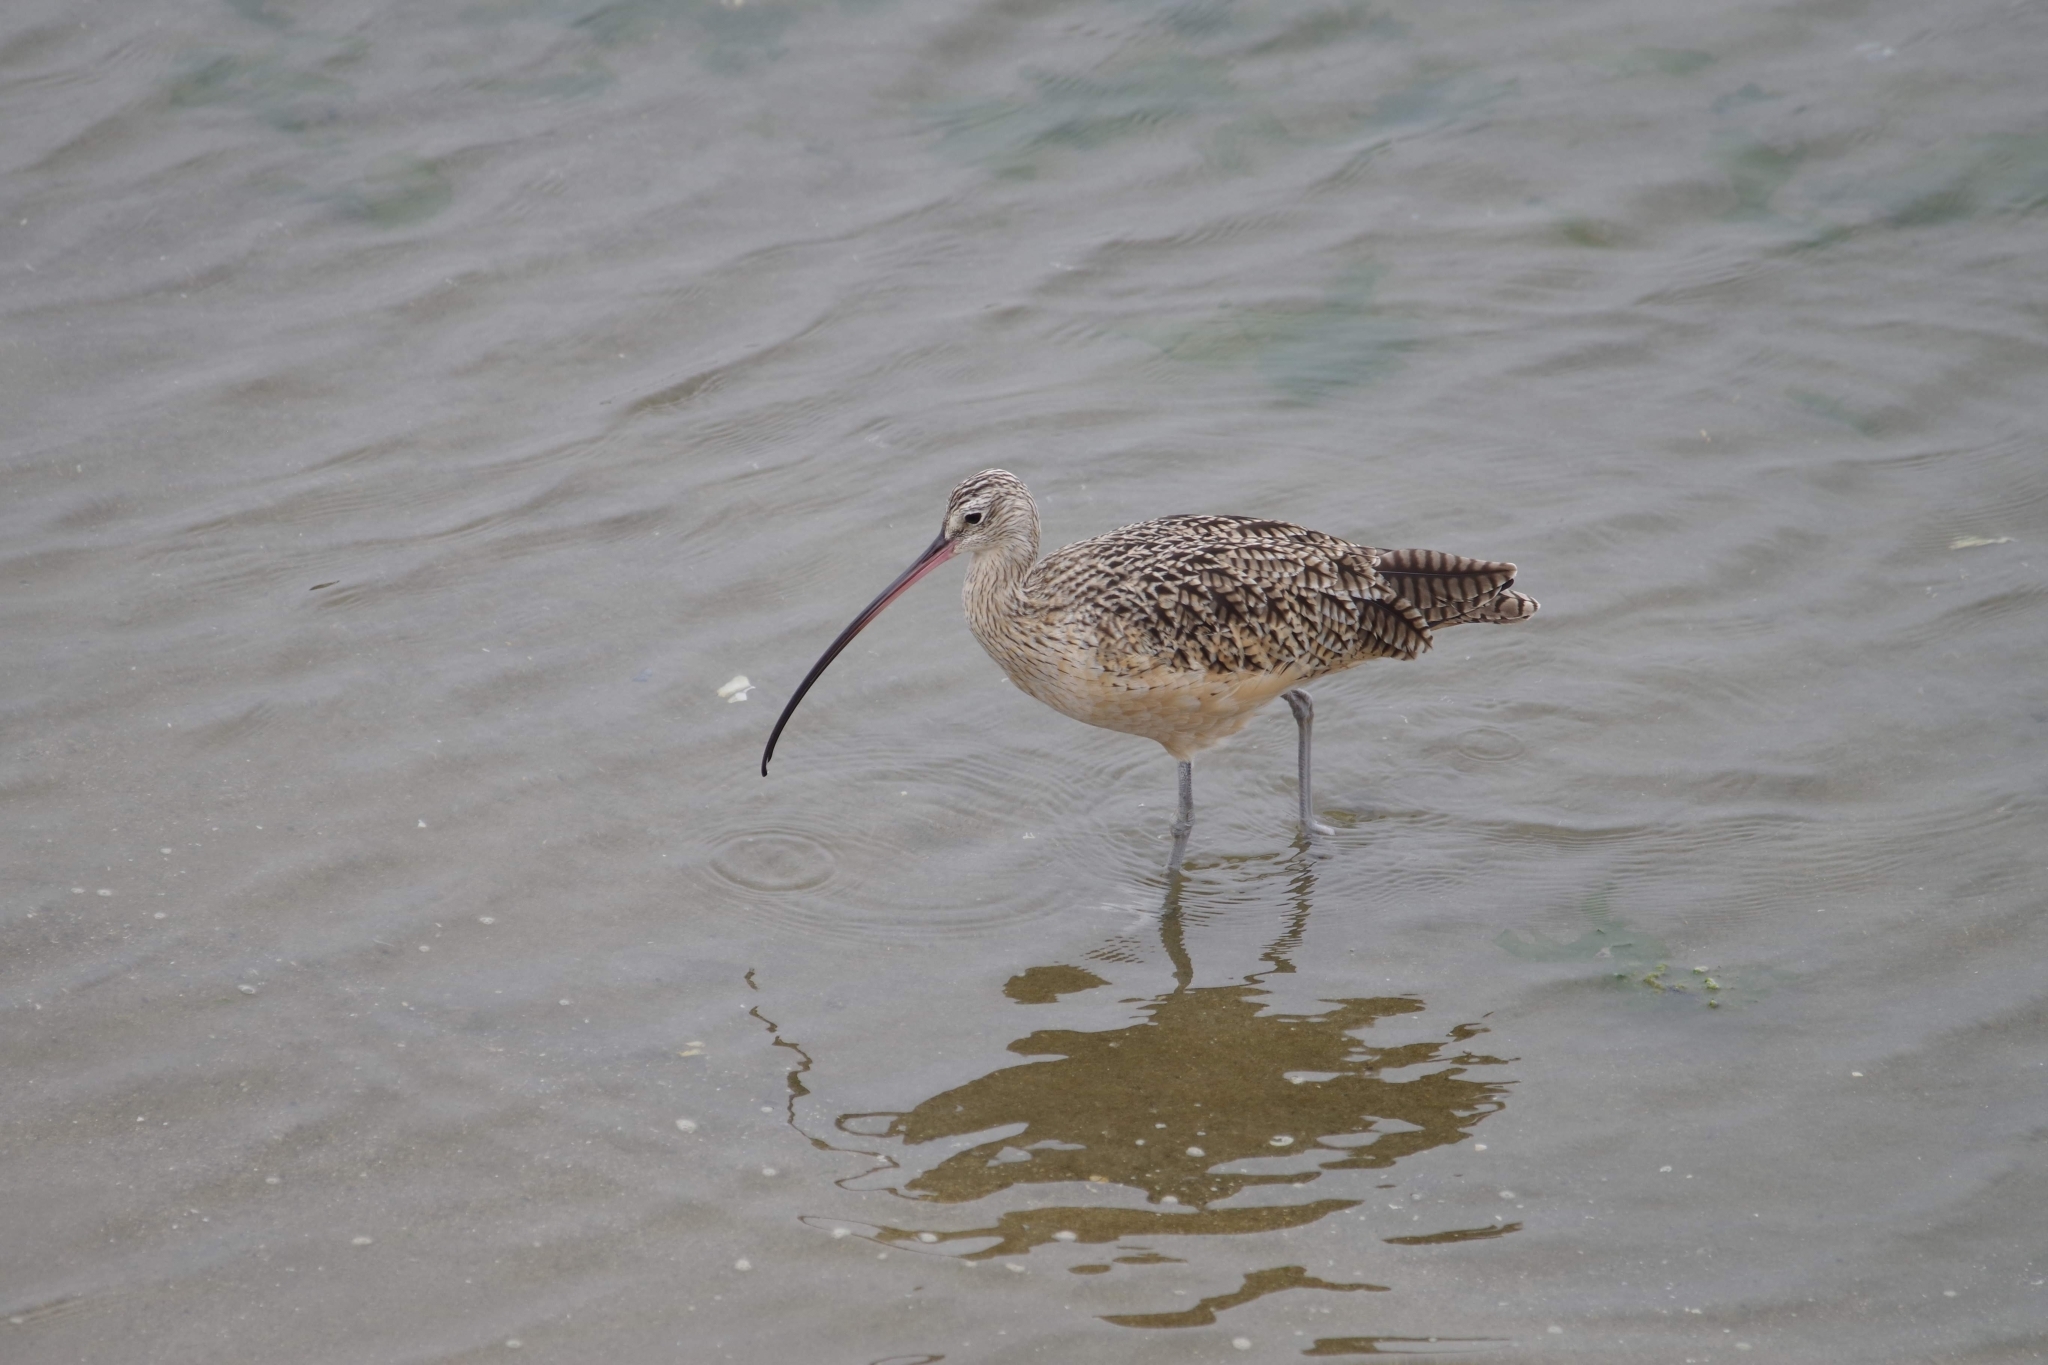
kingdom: Animalia
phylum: Chordata
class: Aves
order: Charadriiformes
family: Scolopacidae
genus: Numenius
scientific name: Numenius americanus
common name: Long-billed curlew
